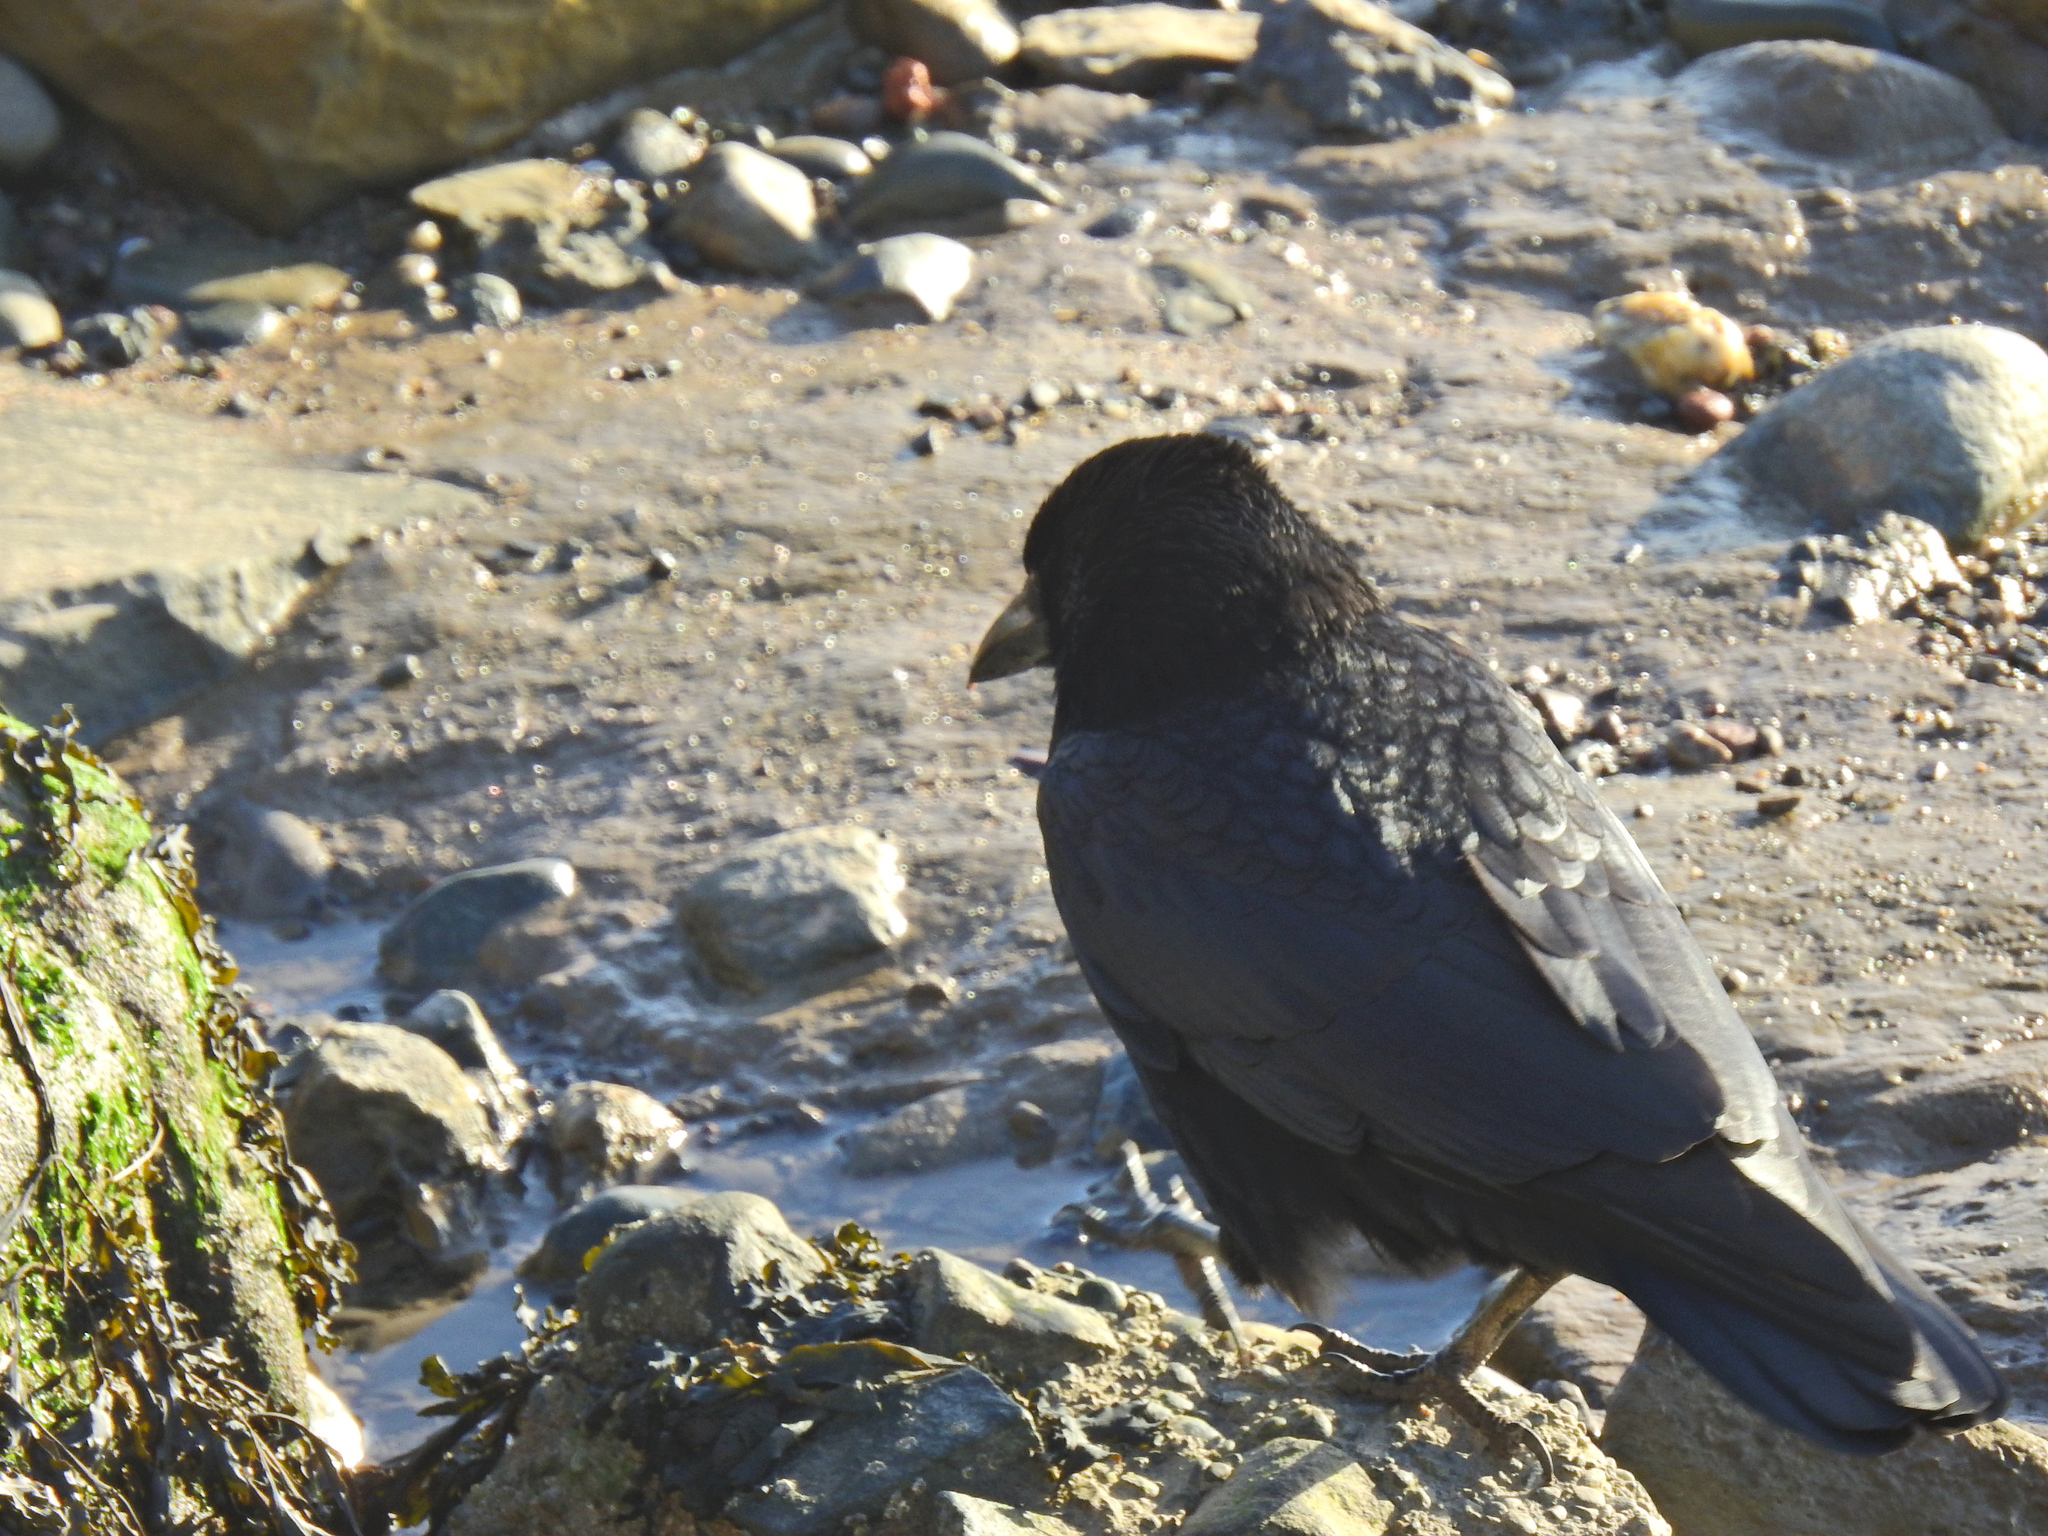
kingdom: Animalia
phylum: Chordata
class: Aves
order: Passeriformes
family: Corvidae
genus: Corvus
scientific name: Corvus corone
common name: Carrion crow
